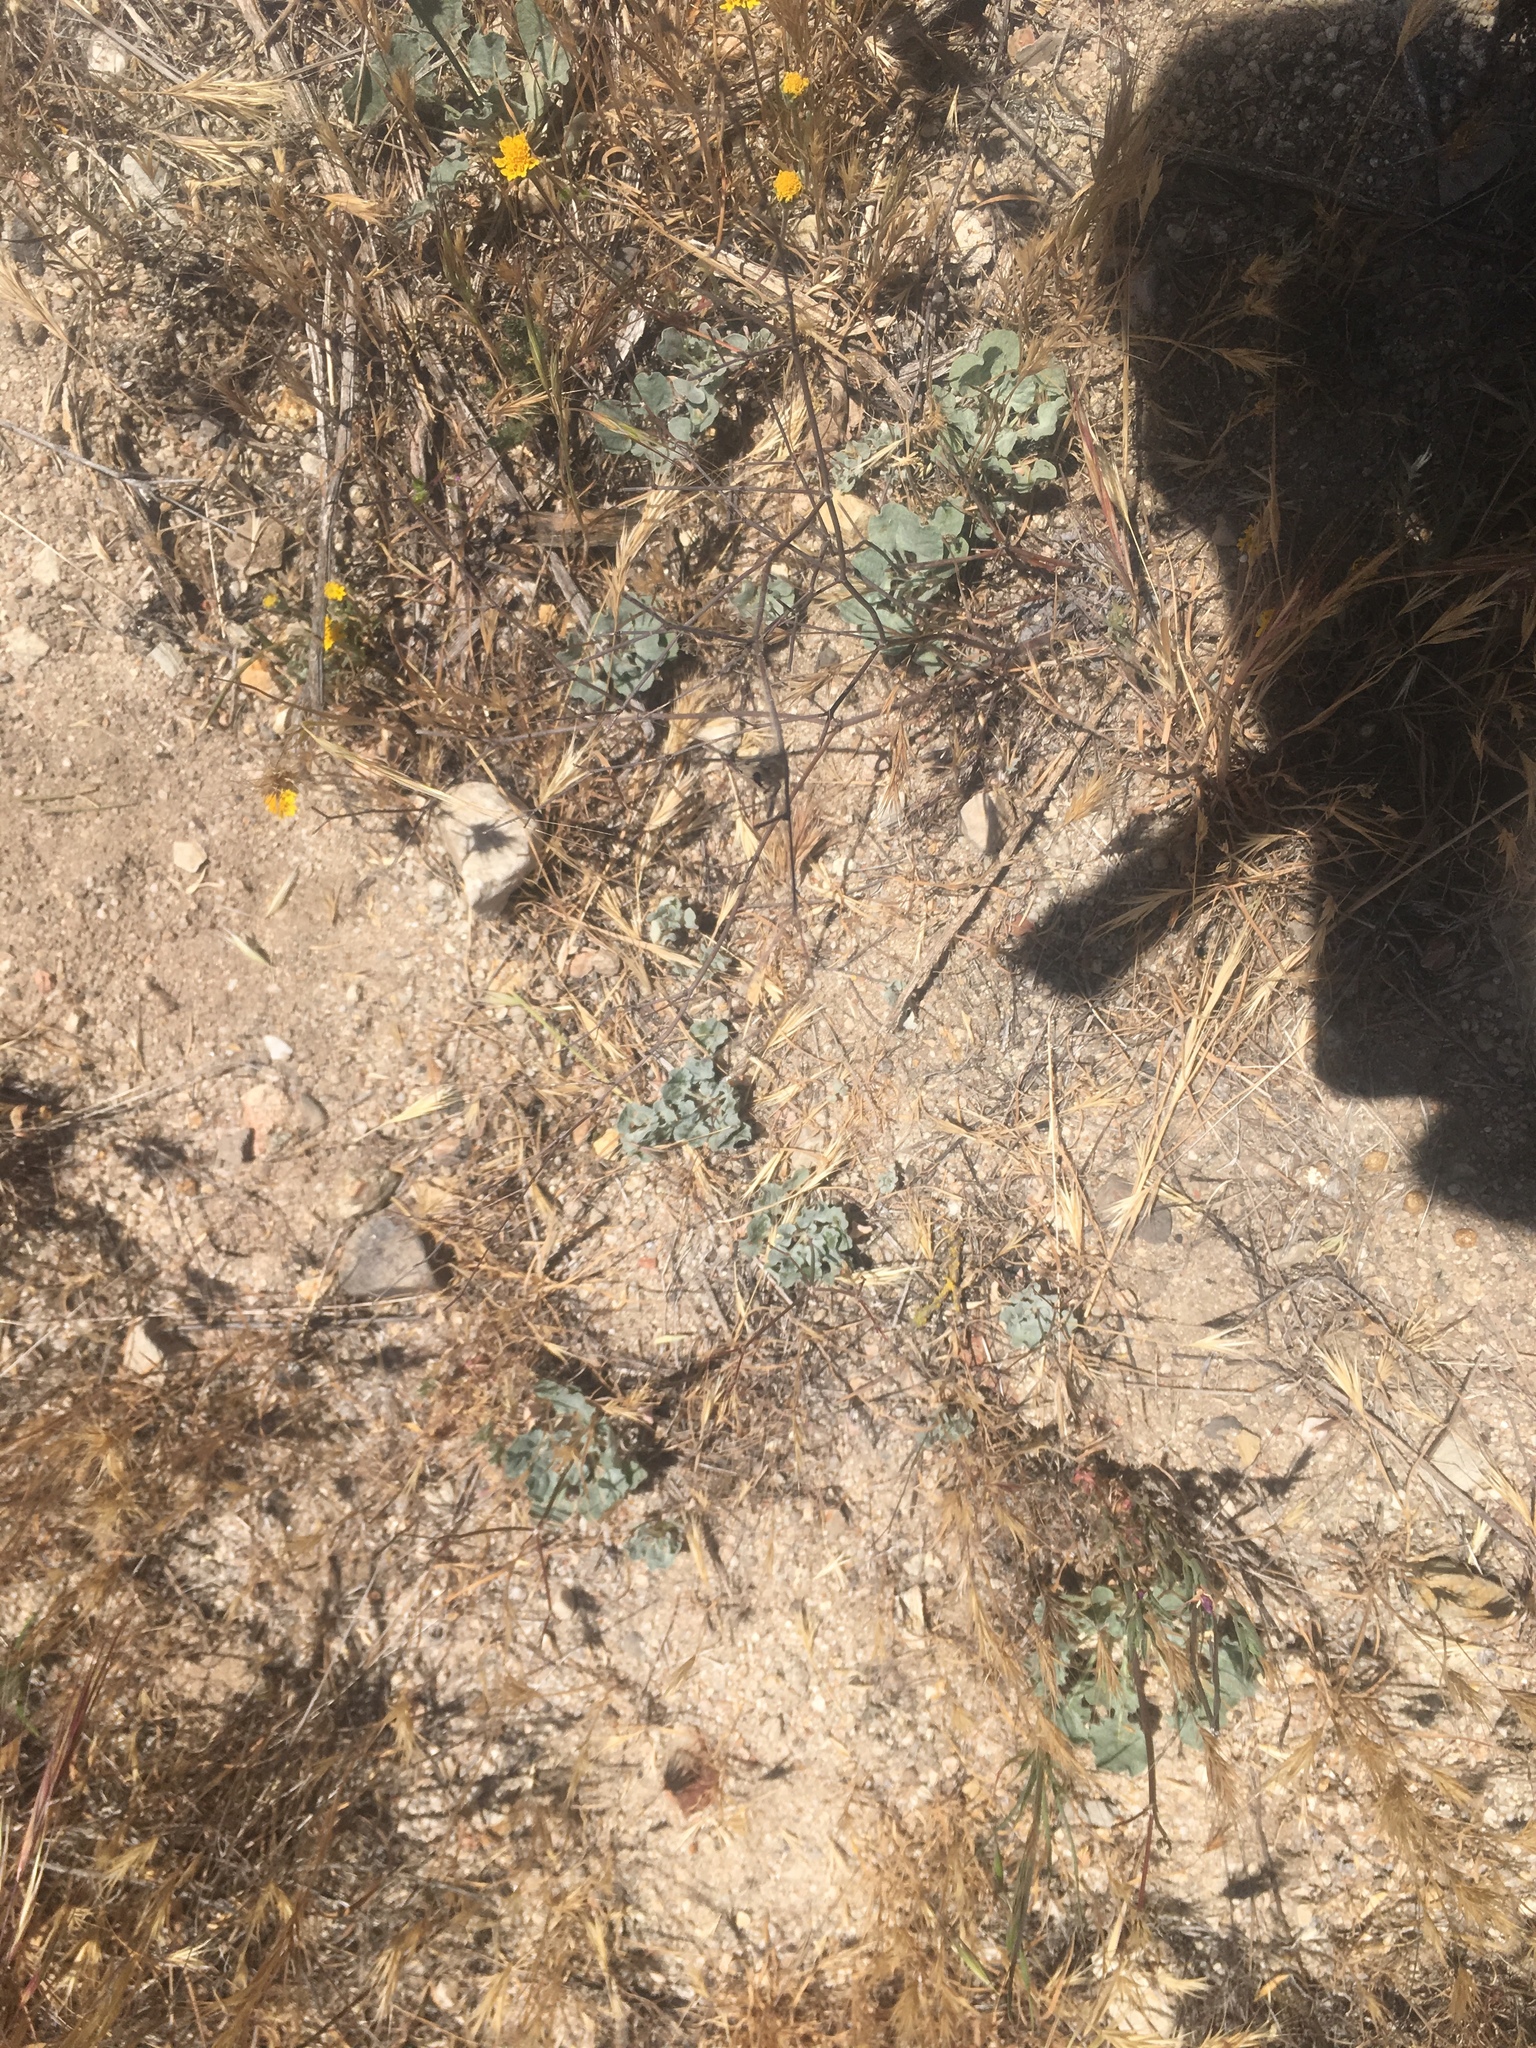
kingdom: Plantae
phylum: Tracheophyta
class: Magnoliopsida
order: Caryophyllales
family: Polygonaceae
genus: Eriogonum
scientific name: Eriogonum elegans
